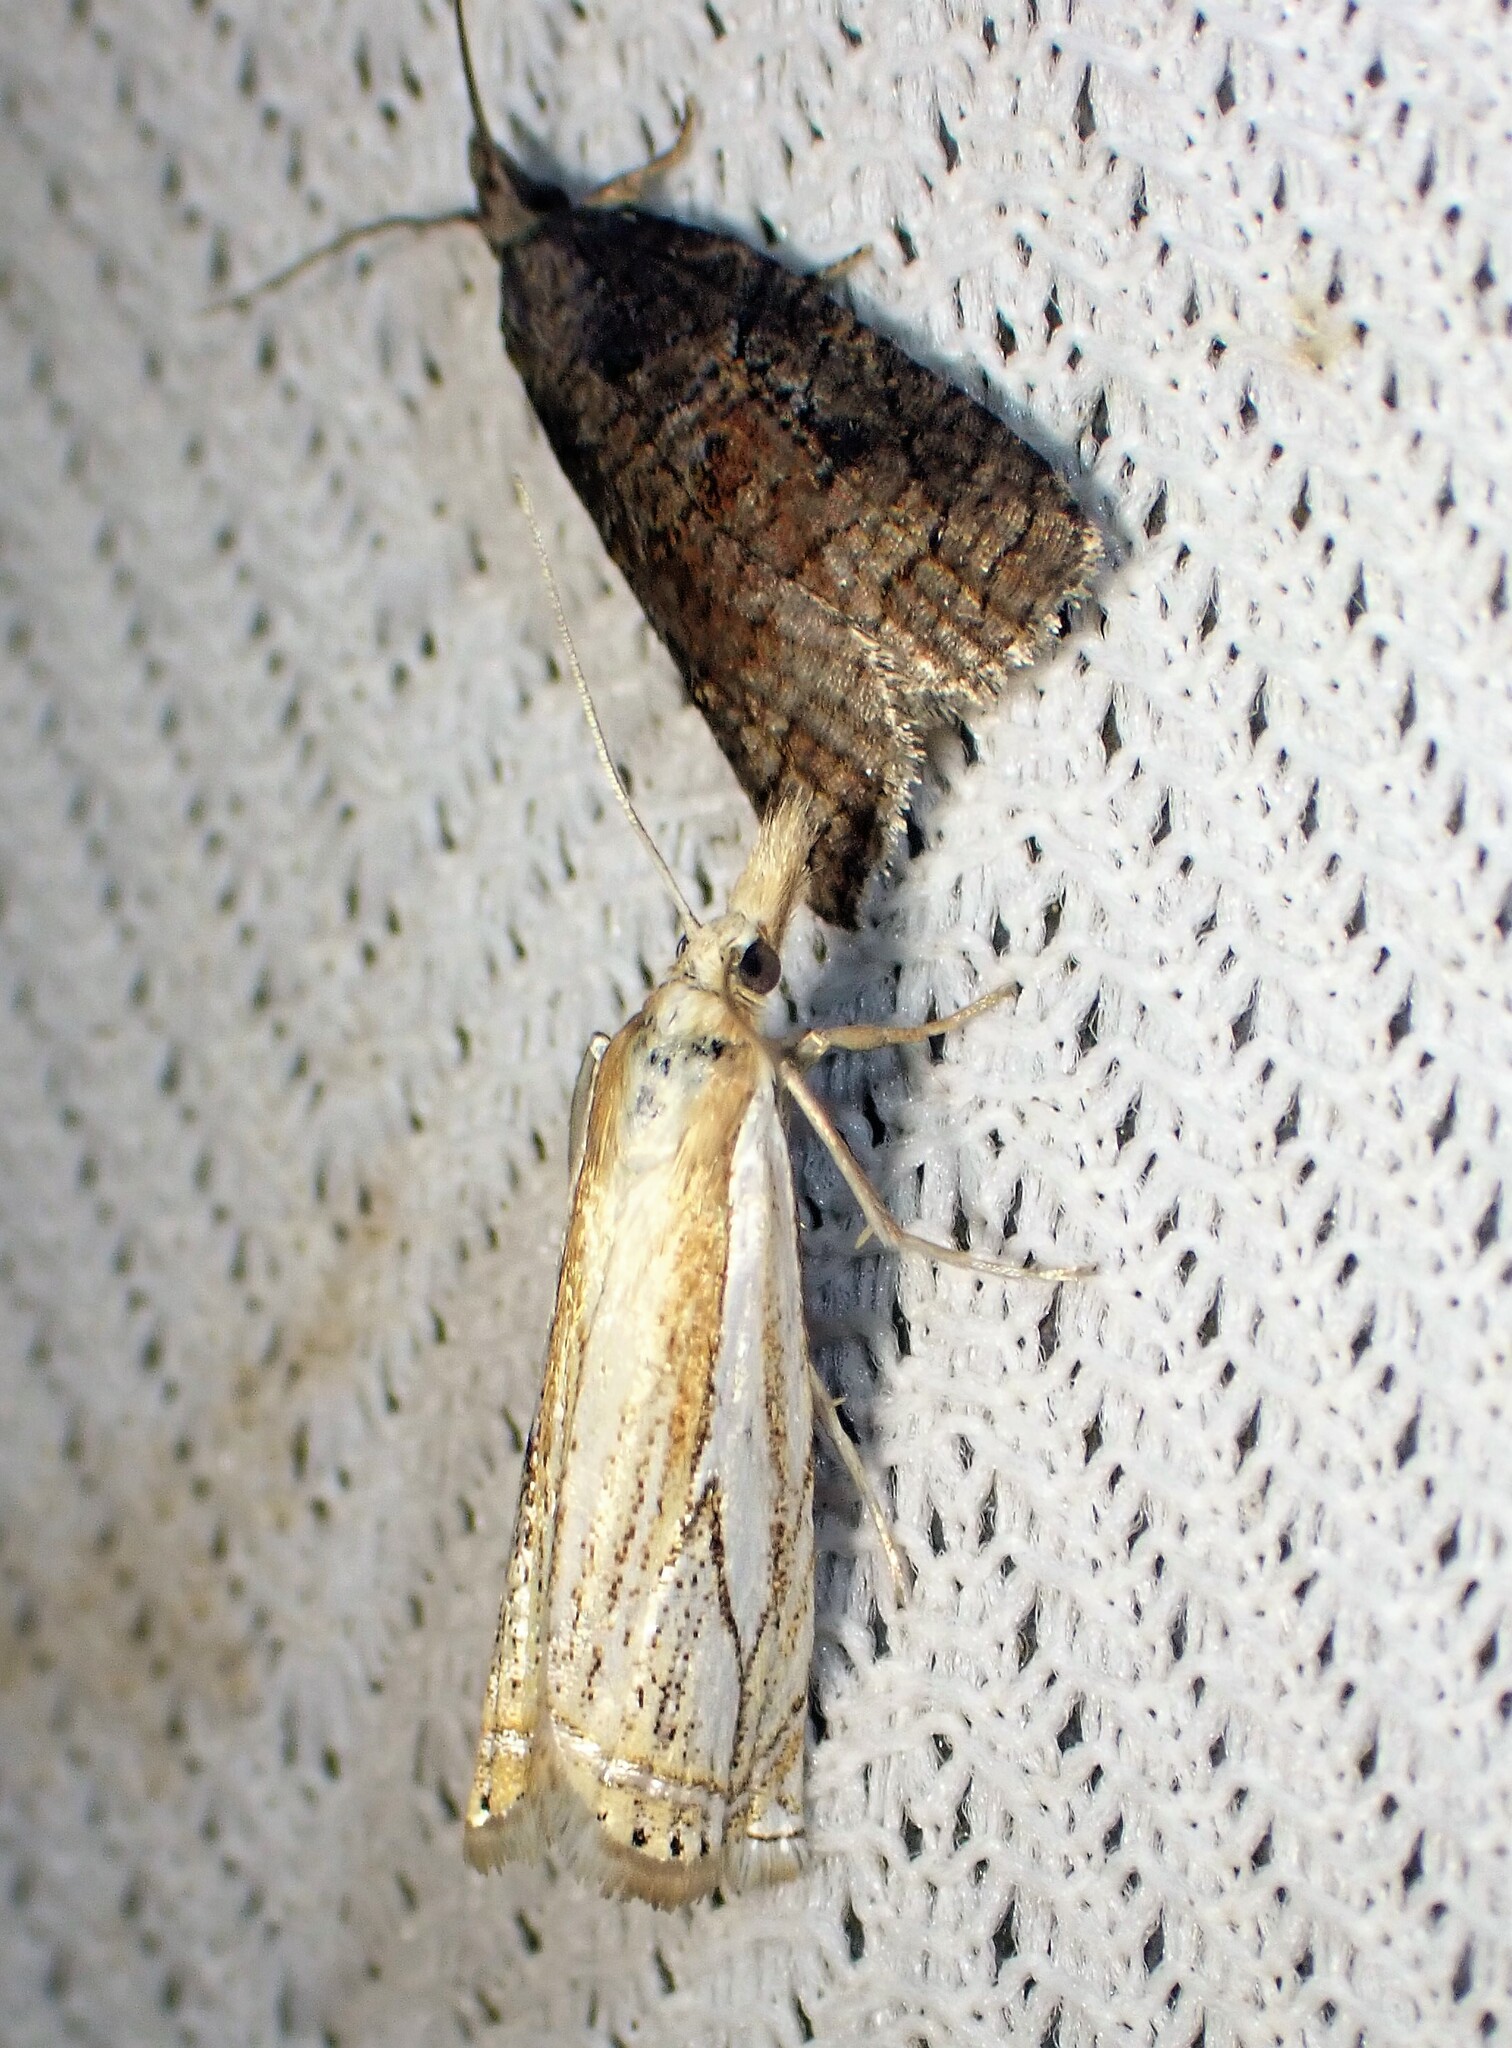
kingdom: Animalia
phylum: Arthropoda
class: Insecta
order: Lepidoptera
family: Crambidae
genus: Crambus
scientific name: Crambus saltuellus
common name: Pasture grass-veneer
